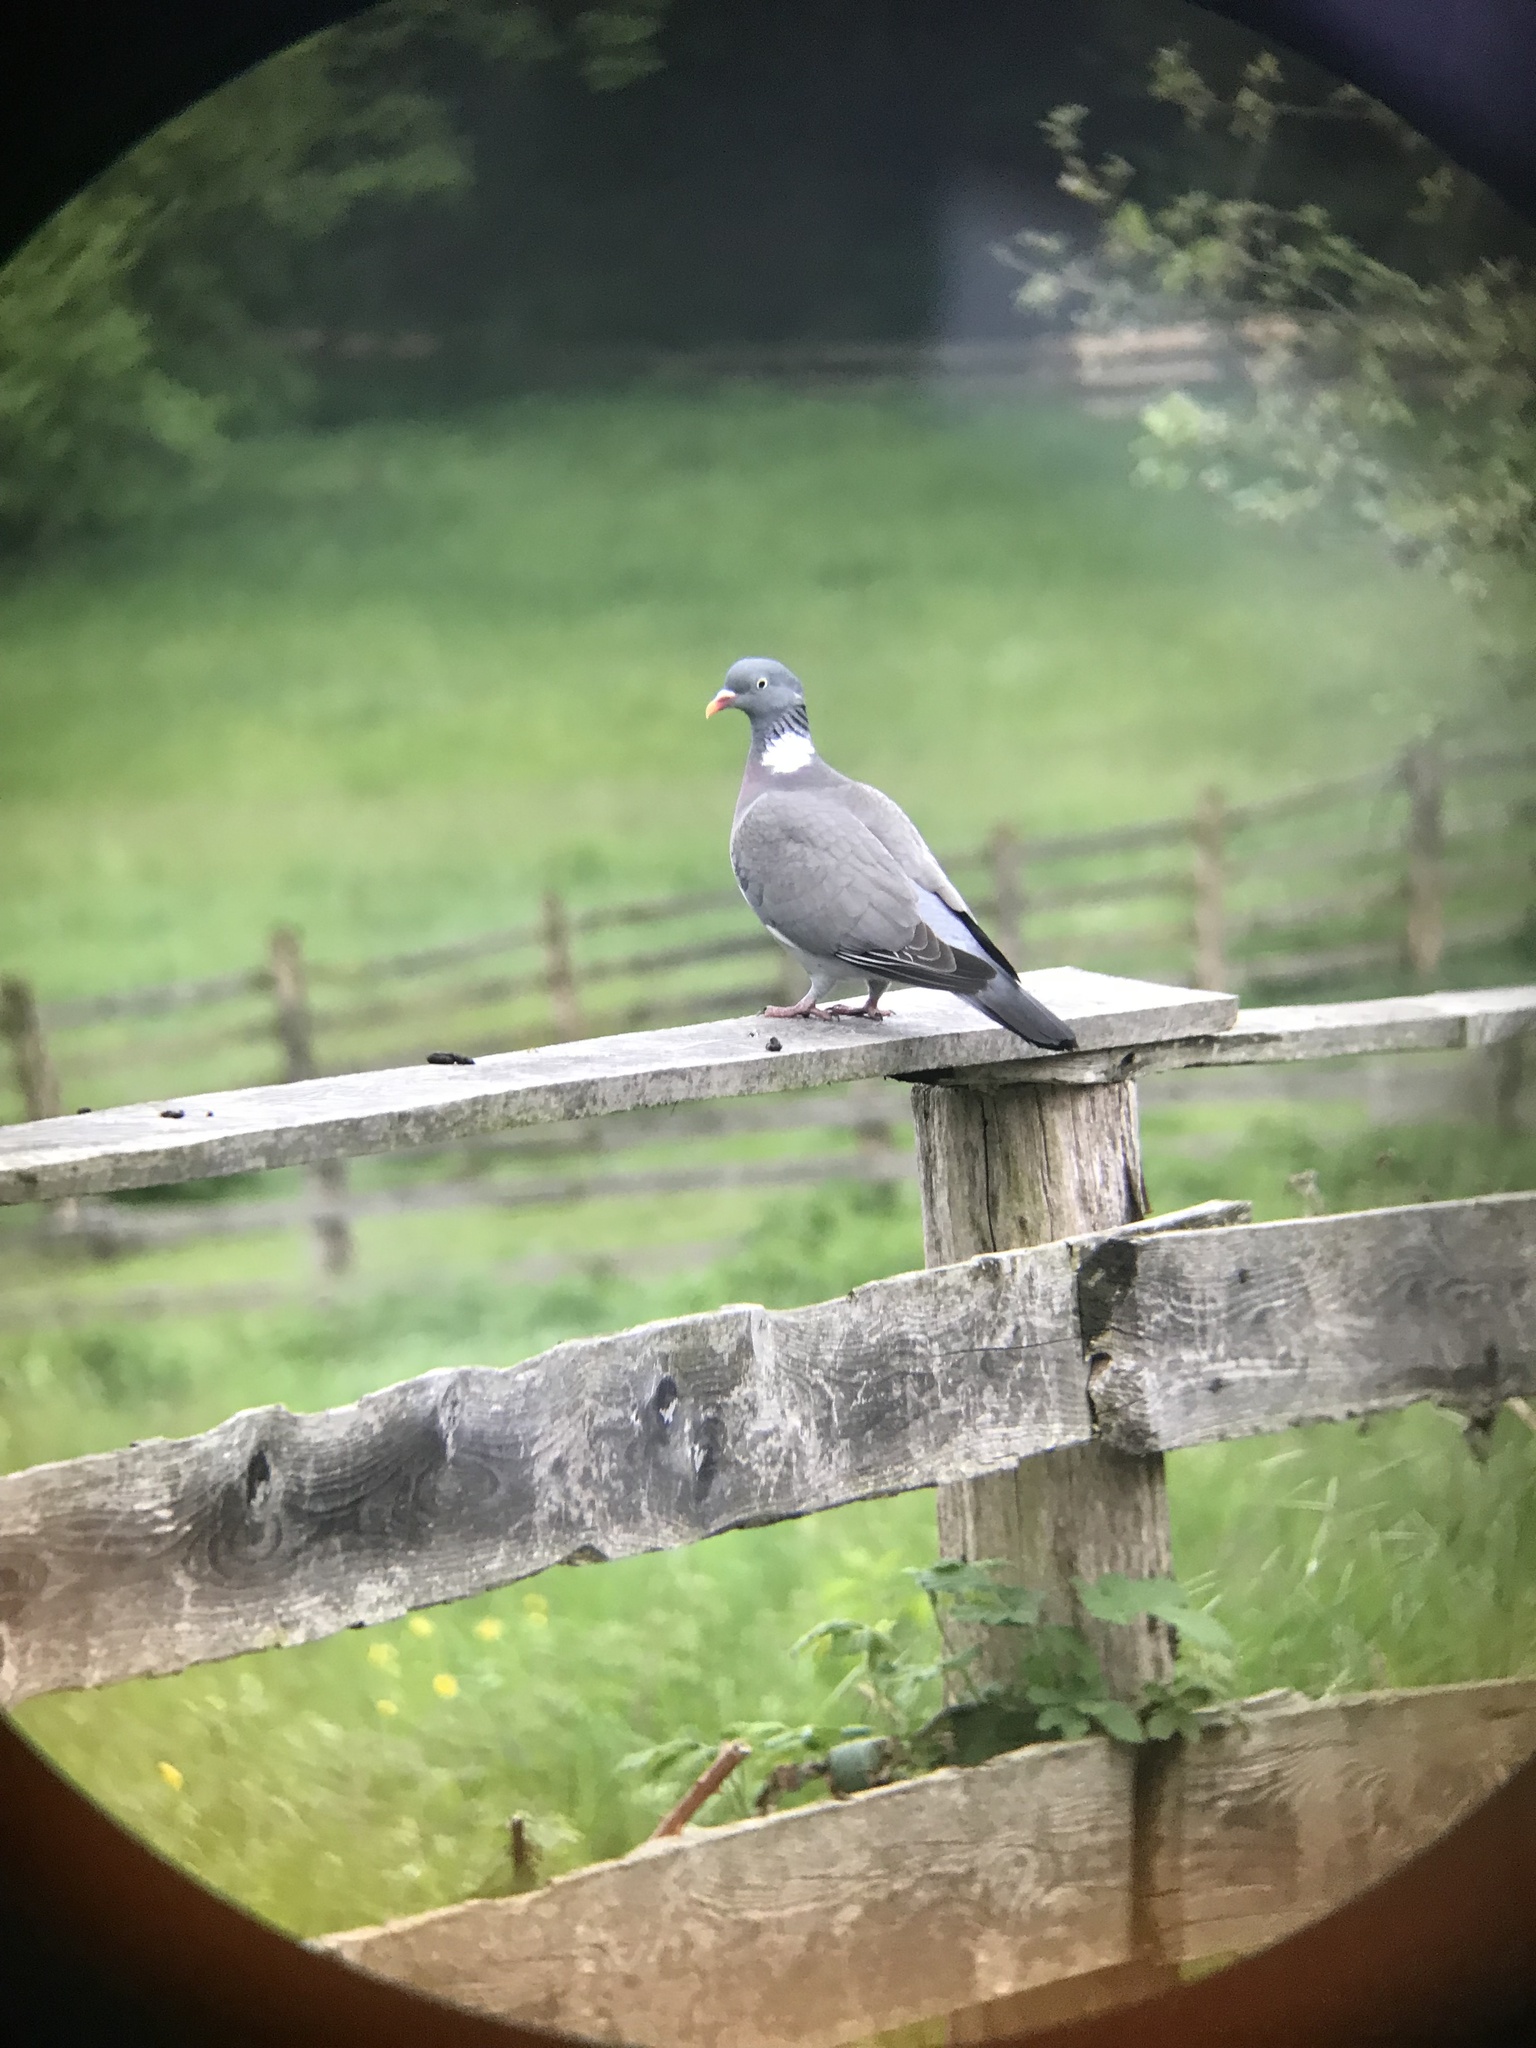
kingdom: Animalia
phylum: Chordata
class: Aves
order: Columbiformes
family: Columbidae
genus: Columba
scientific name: Columba palumbus
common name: Common wood pigeon
